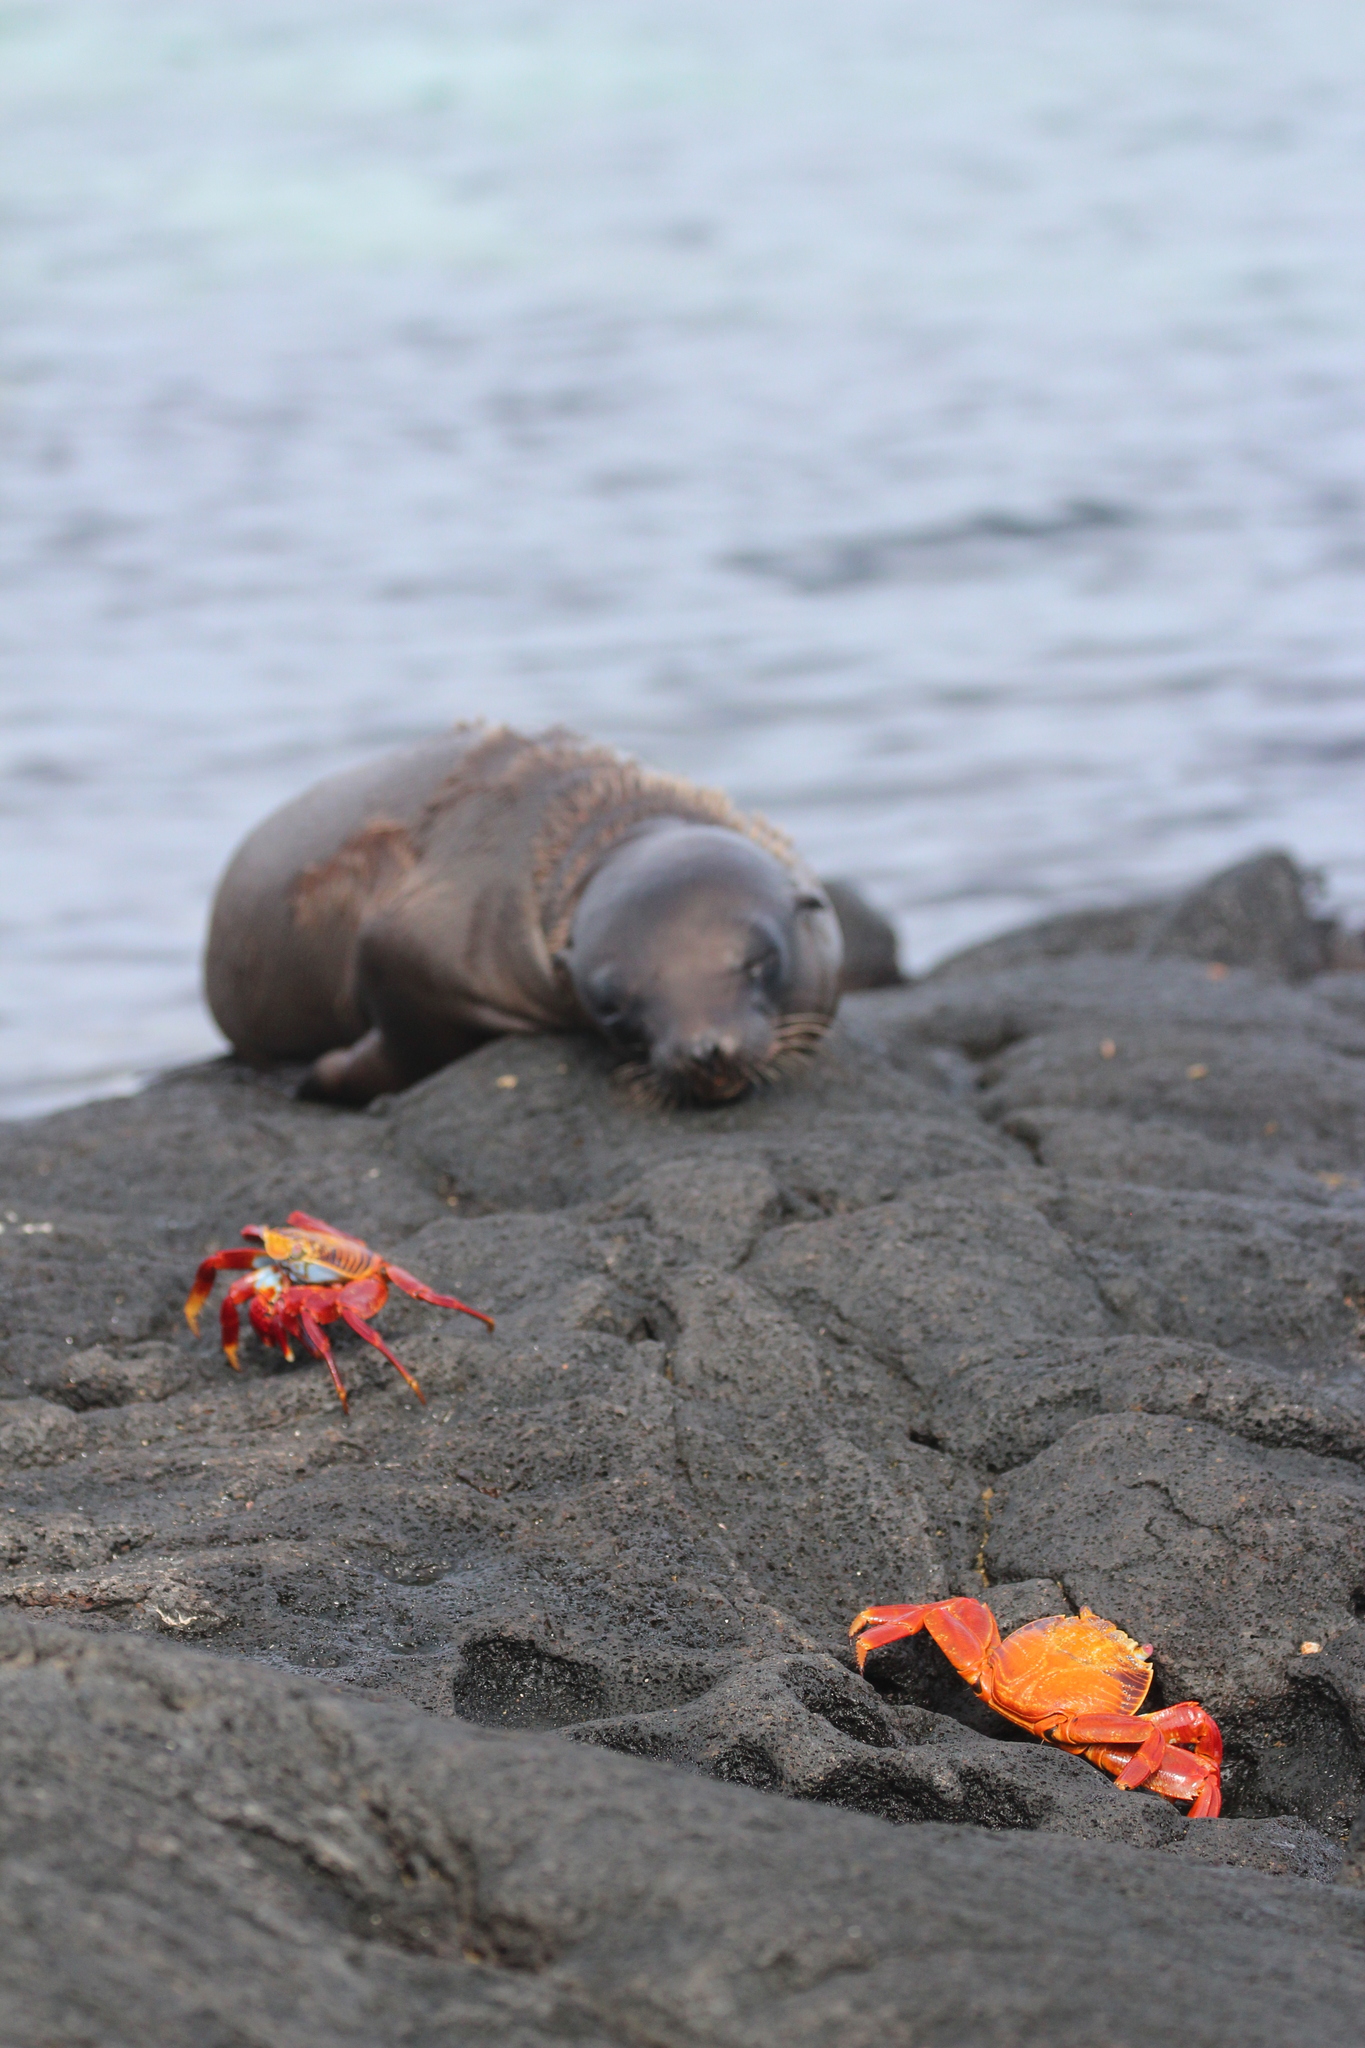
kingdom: Animalia
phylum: Arthropoda
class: Malacostraca
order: Decapoda
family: Grapsidae
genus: Grapsus
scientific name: Grapsus grapsus
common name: Sally lightfoot
